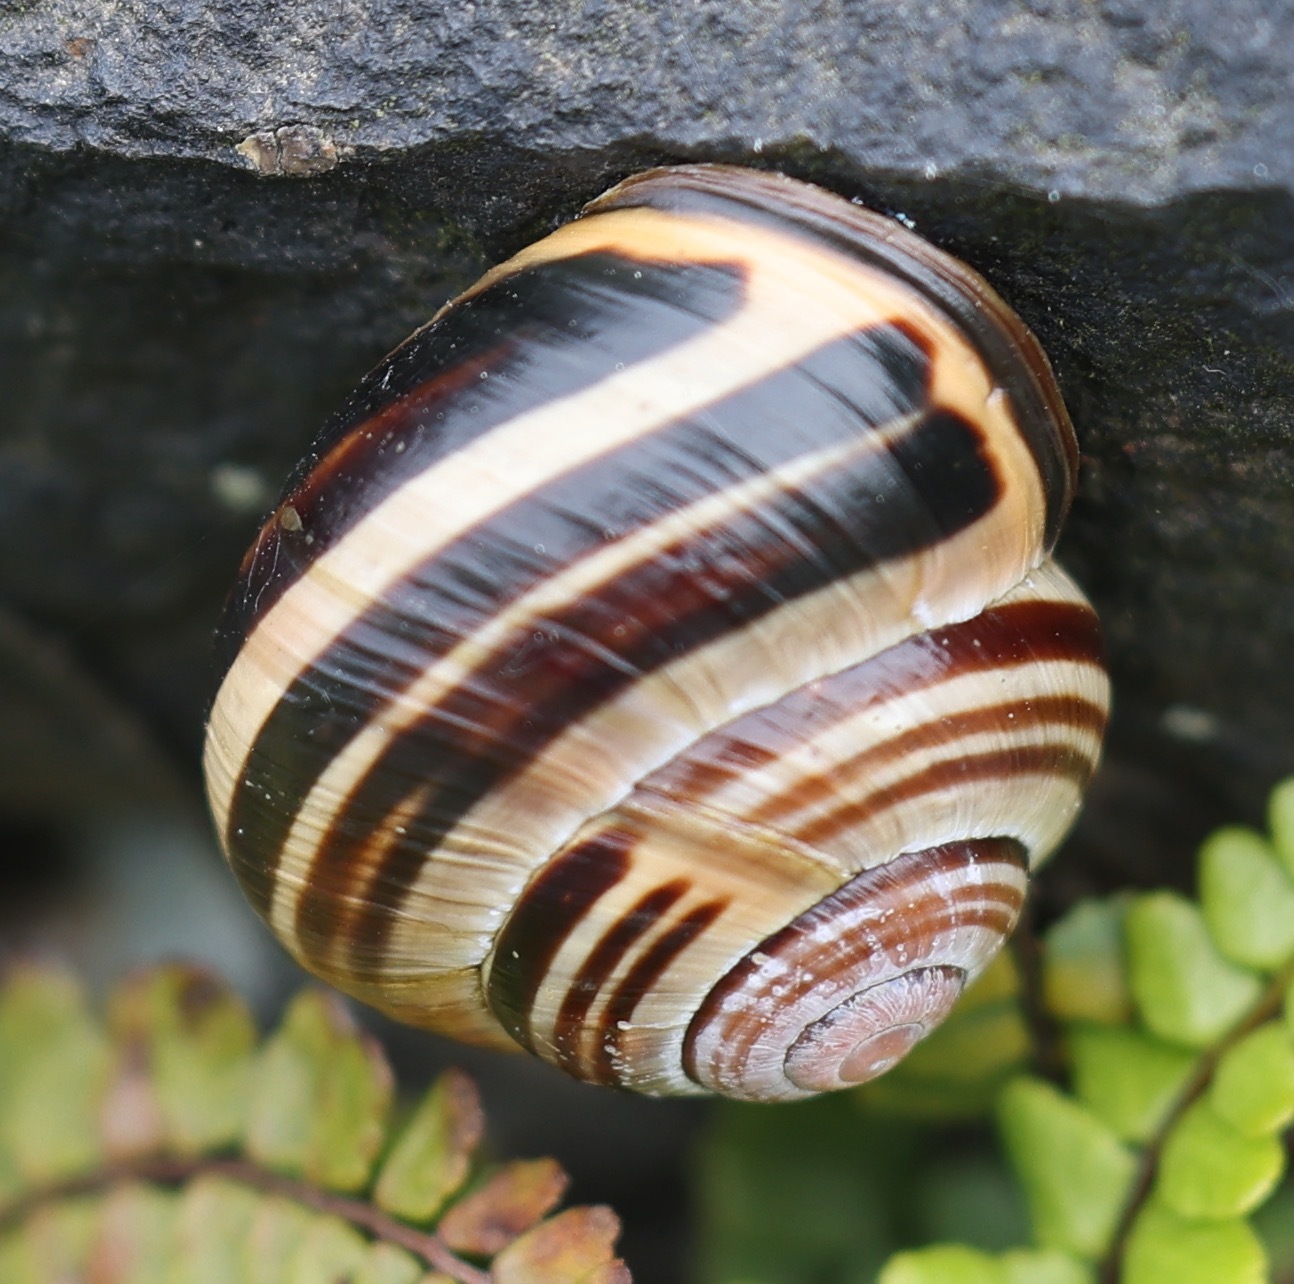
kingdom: Animalia
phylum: Mollusca
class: Gastropoda
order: Stylommatophora
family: Helicidae
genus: Cepaea
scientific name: Cepaea nemoralis
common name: Grovesnail
